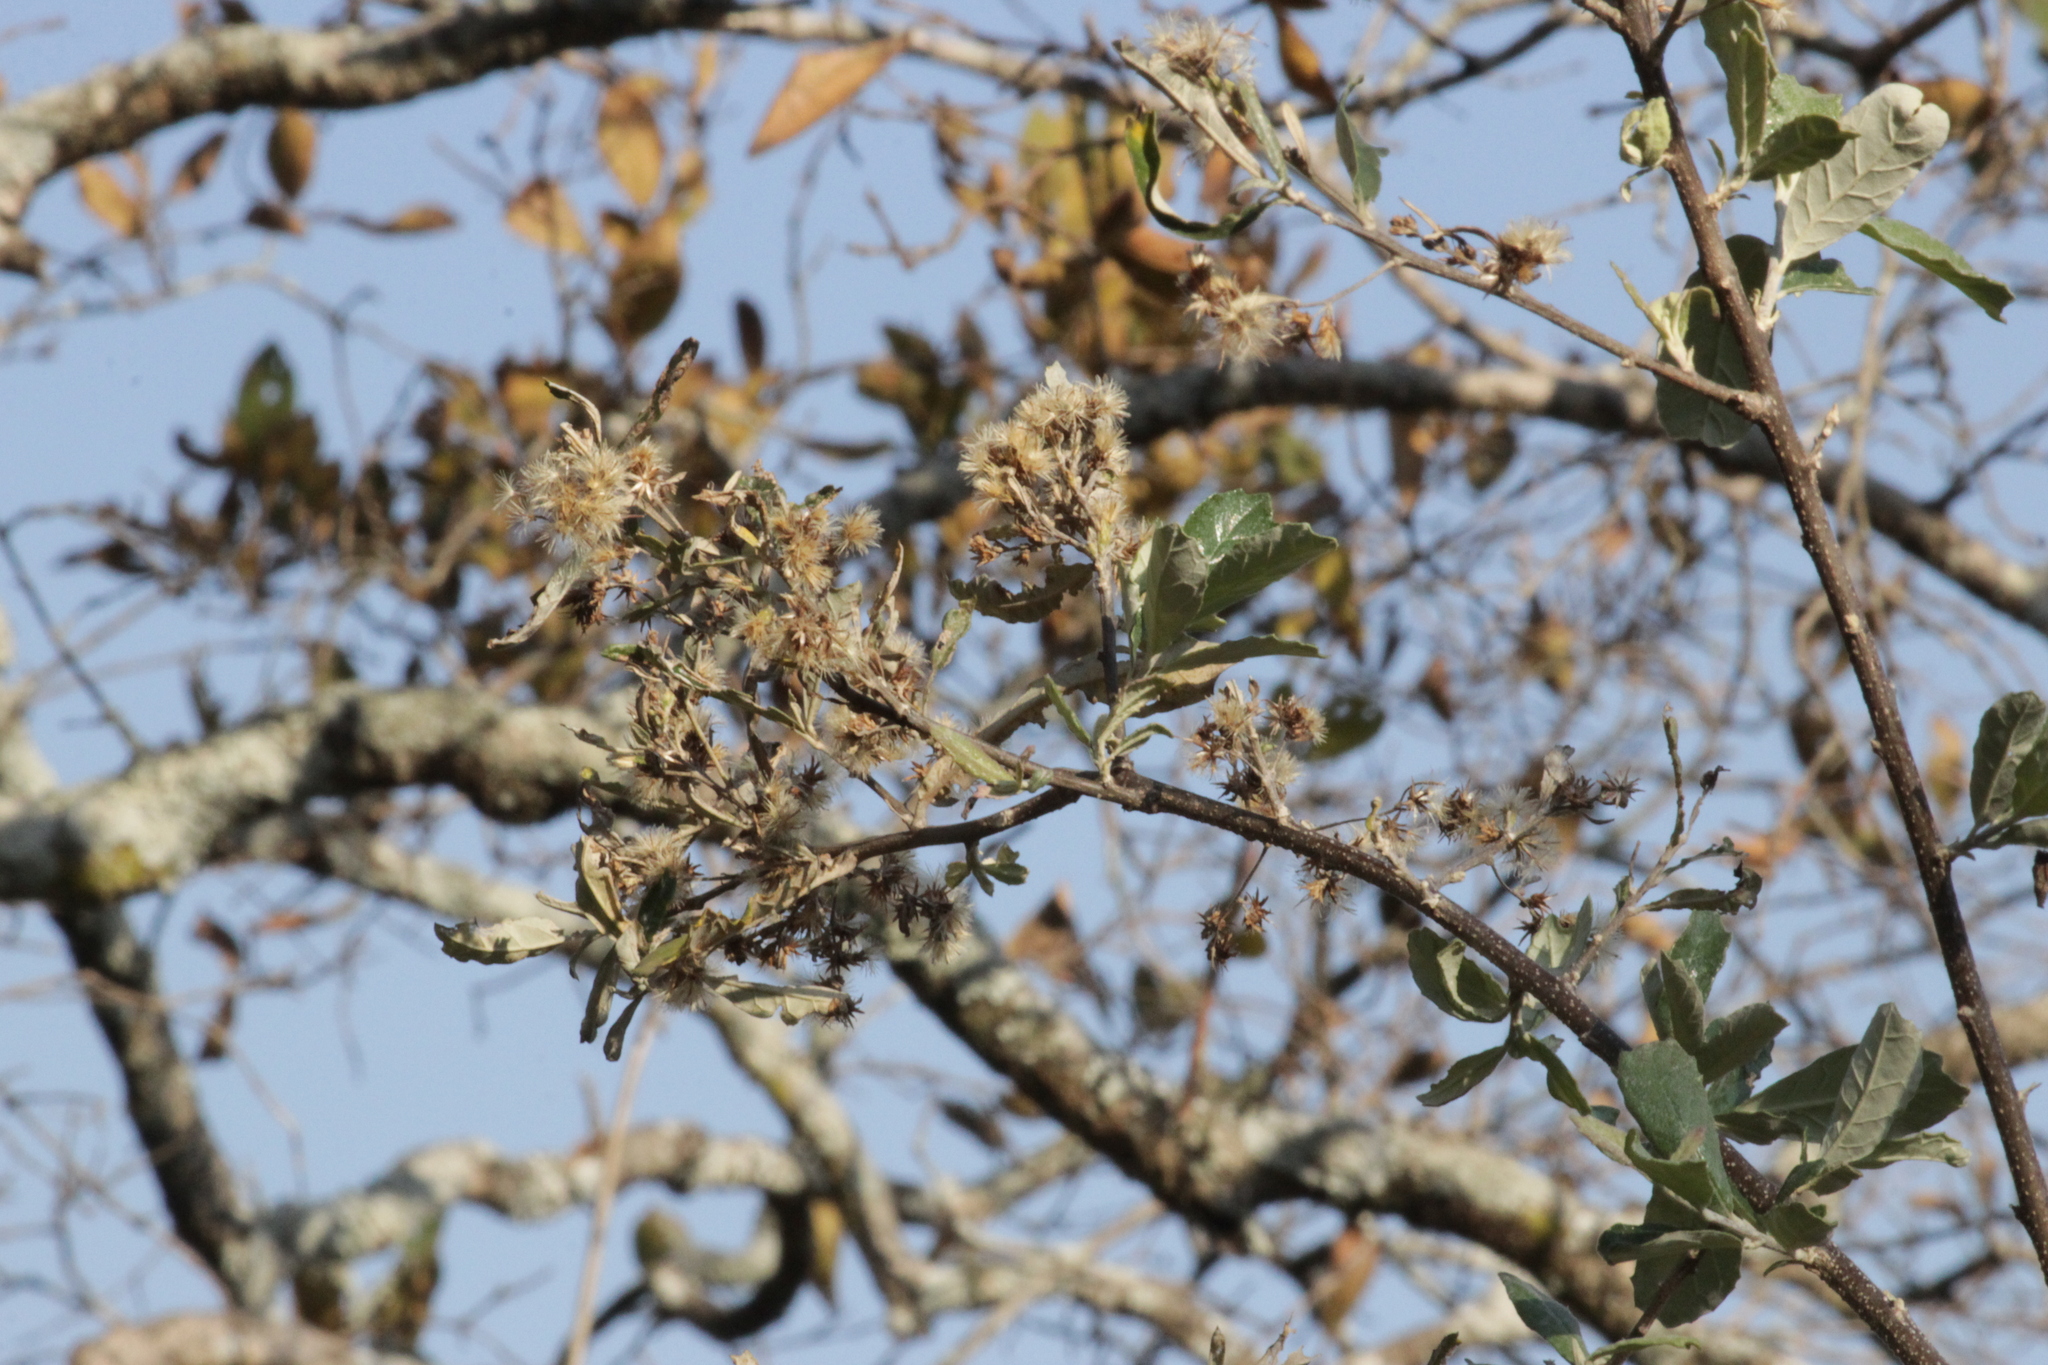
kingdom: Plantae
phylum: Tracheophyta
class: Magnoliopsida
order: Asterales
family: Asteraceae
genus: Brachylaena
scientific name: Brachylaena elliptica
